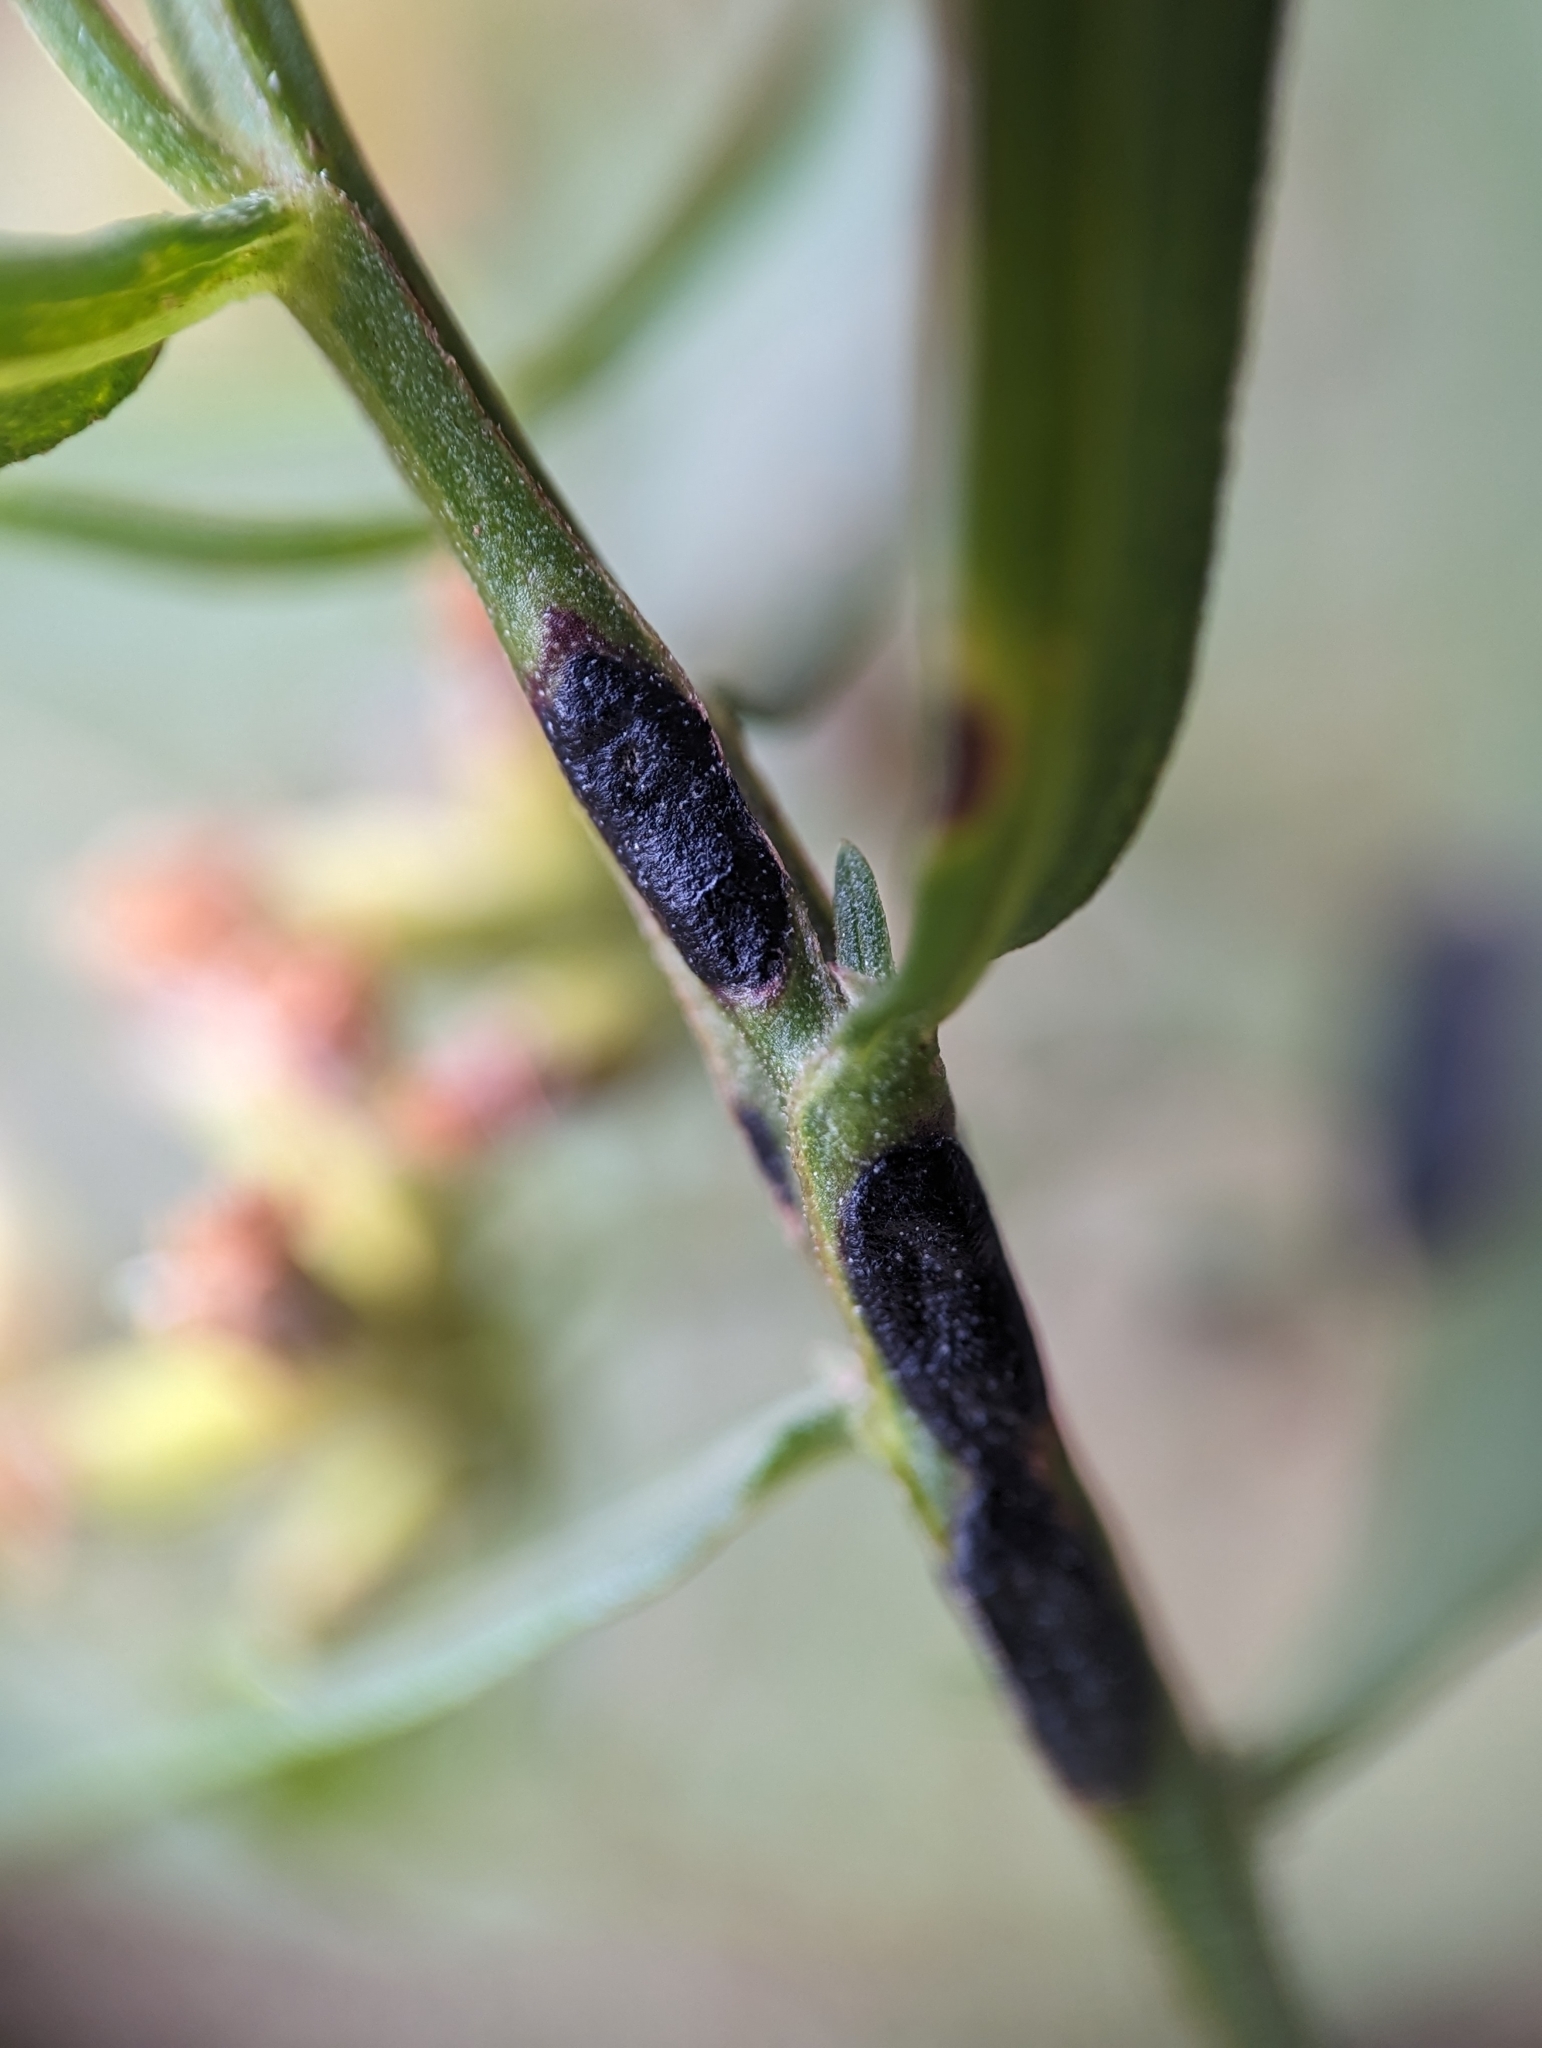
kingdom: Animalia
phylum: Arthropoda
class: Insecta
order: Diptera
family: Cecidomyiidae
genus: Asteromyia
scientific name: Asteromyia euthamiae
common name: Euthamia leaf gall midge
